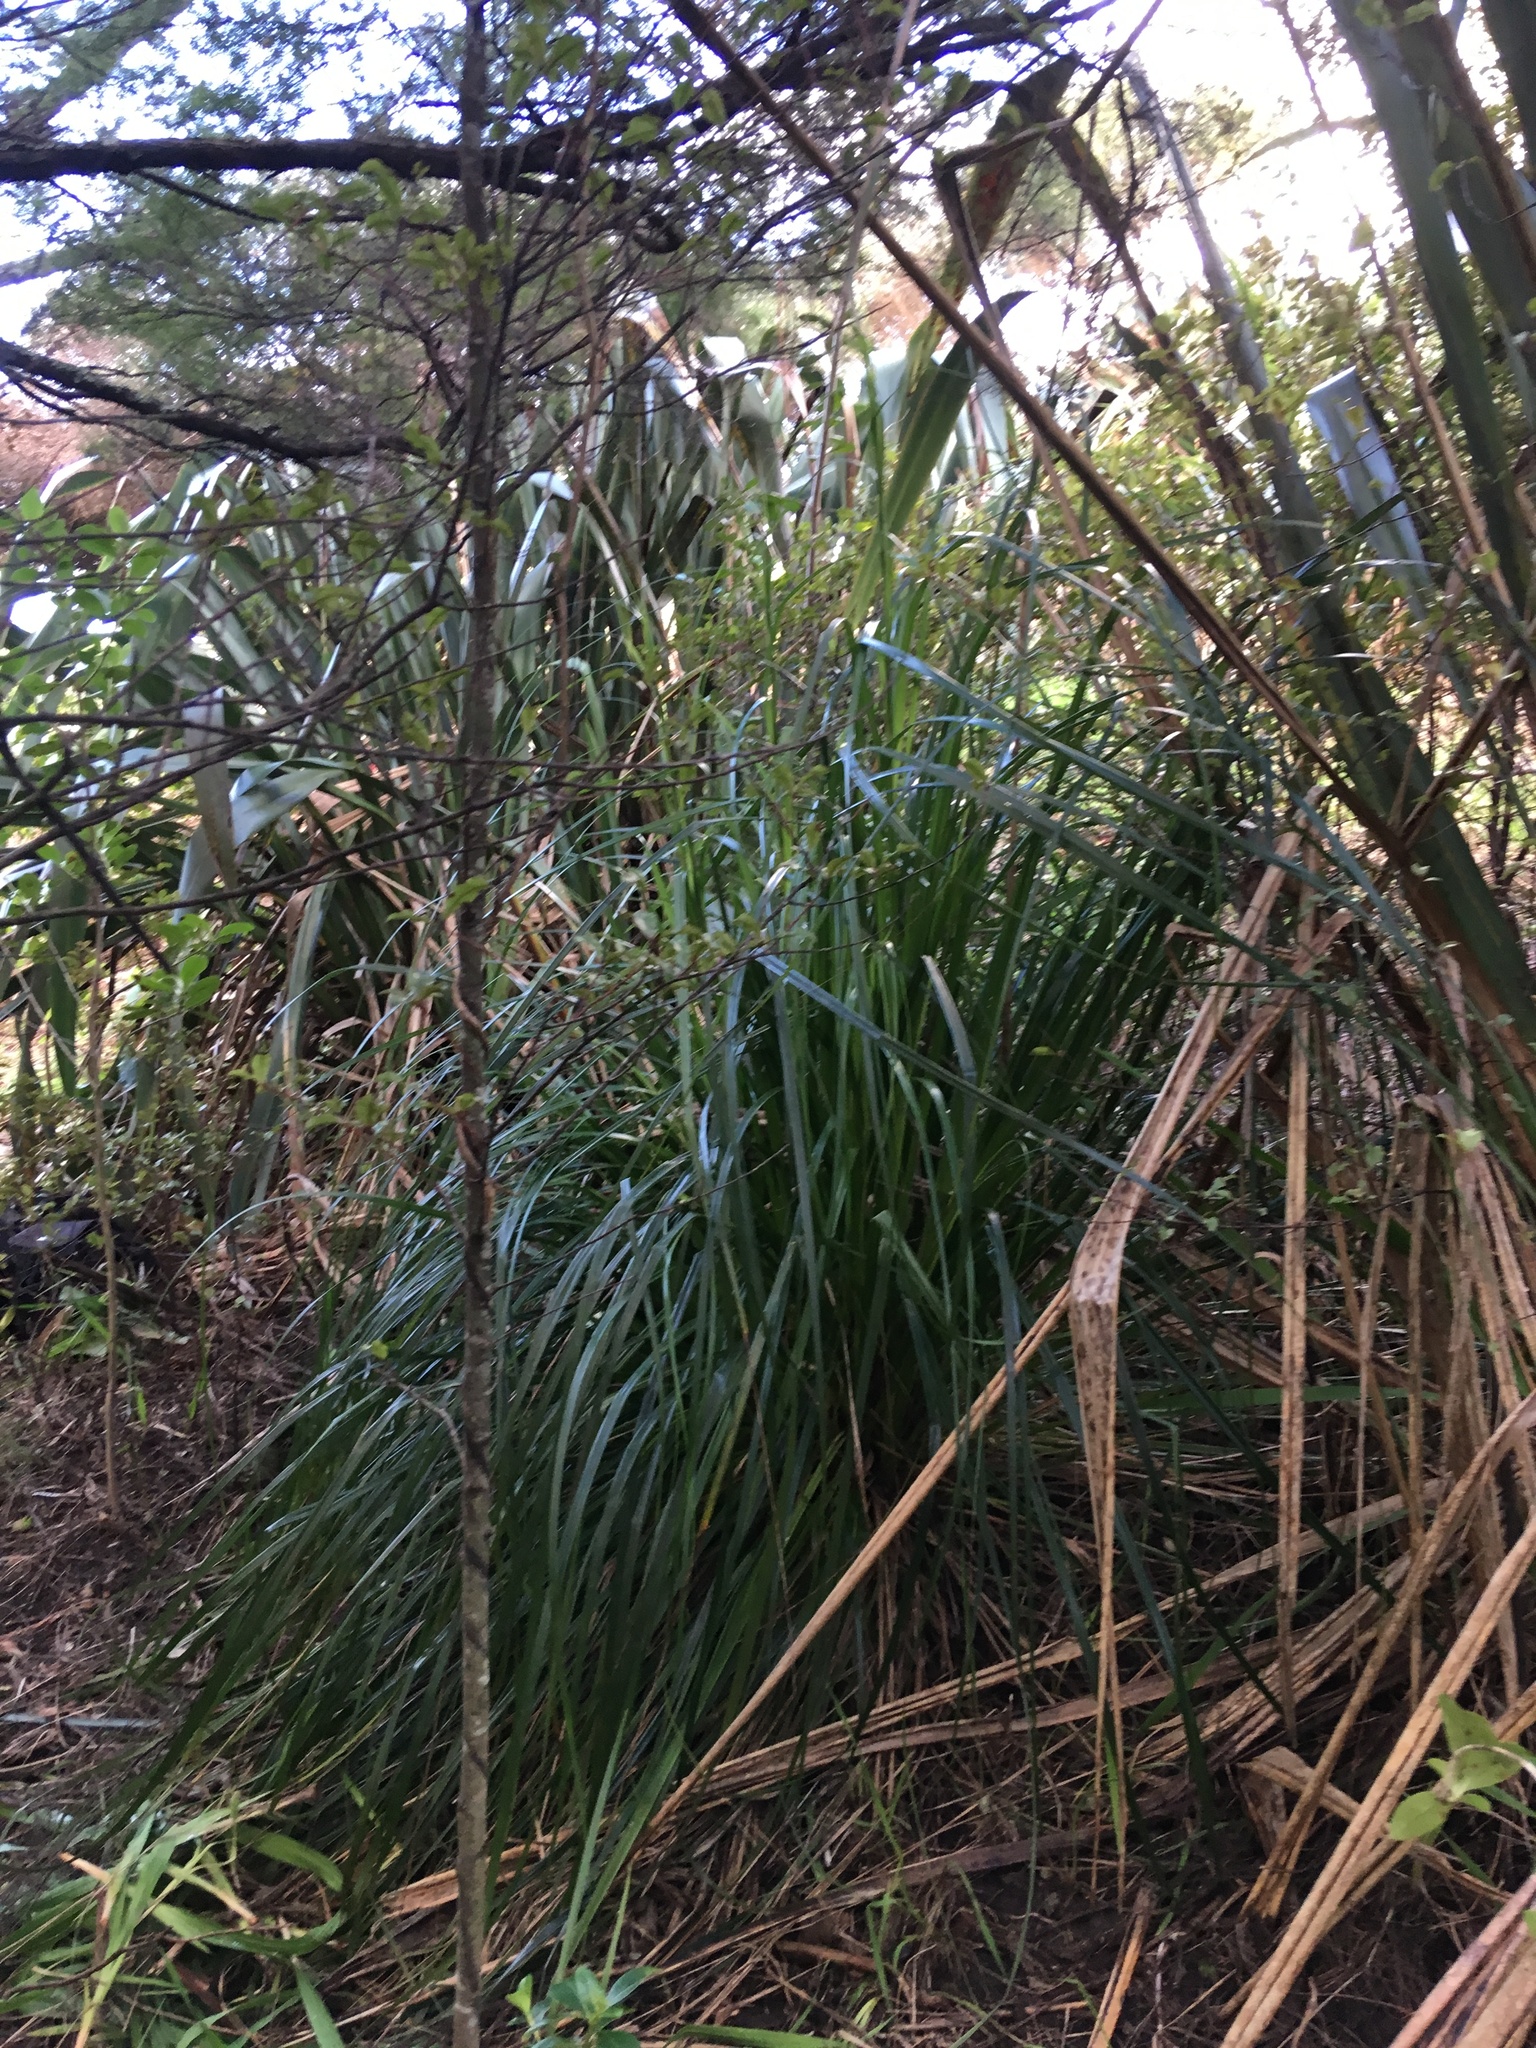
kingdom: Plantae
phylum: Tracheophyta
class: Liliopsida
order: Poales
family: Cyperaceae
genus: Gahnia
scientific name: Gahnia xanthocarpa
